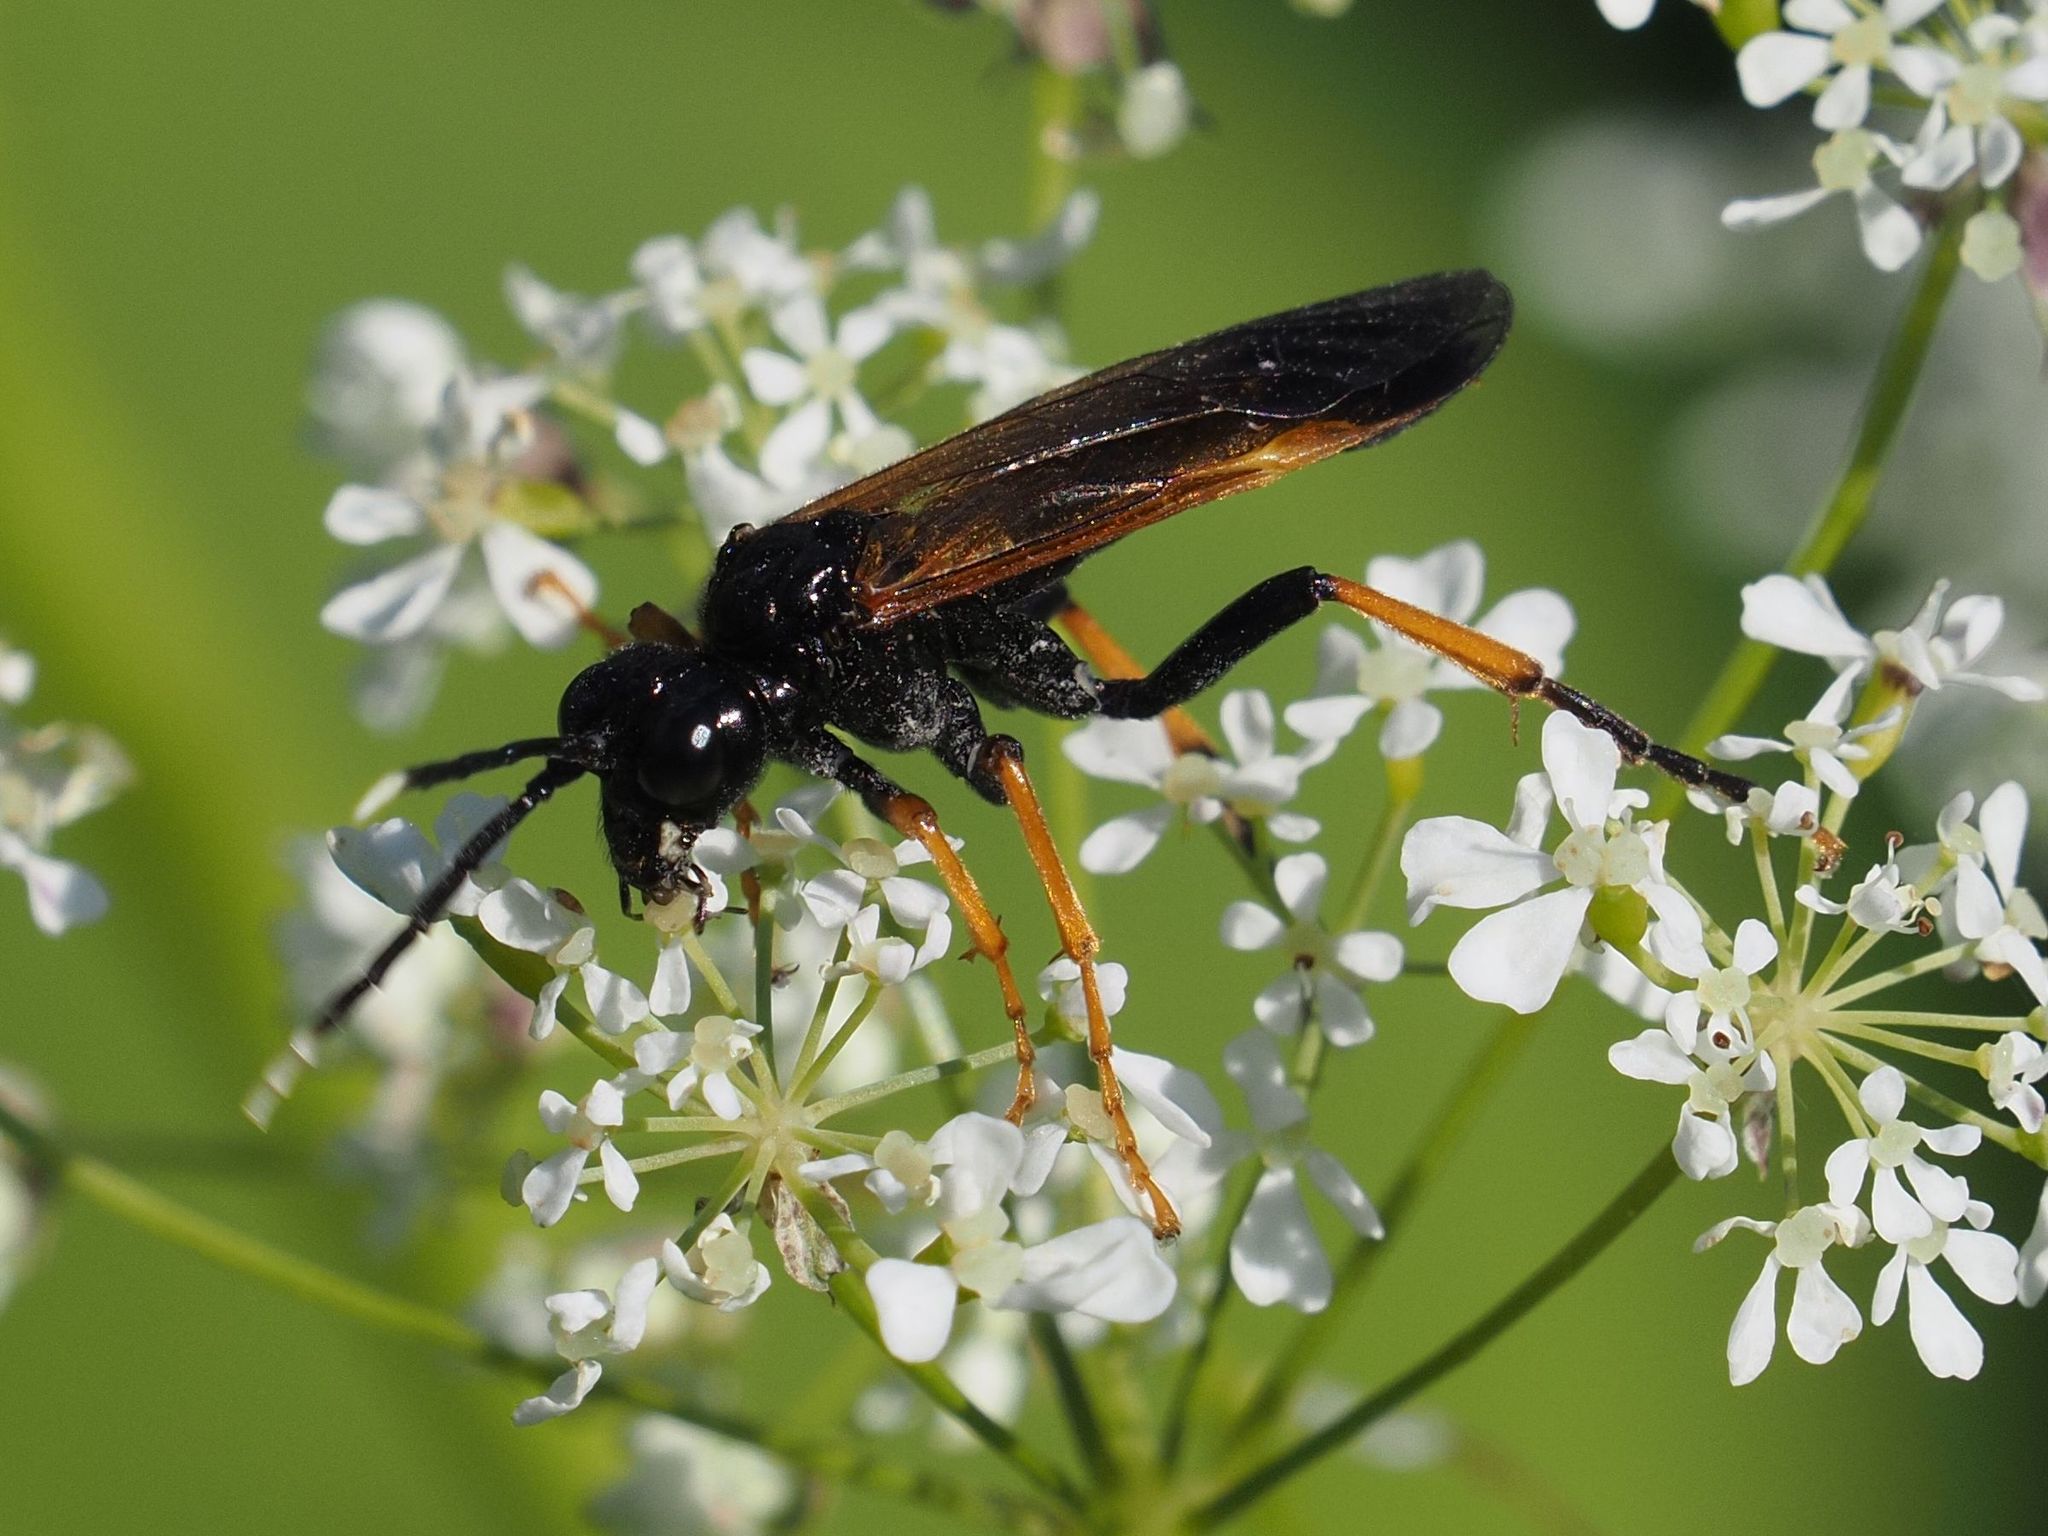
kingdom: Animalia
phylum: Arthropoda
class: Insecta
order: Hymenoptera
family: Tenthredinidae
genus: Tenthredo
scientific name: Tenthredo crassa
